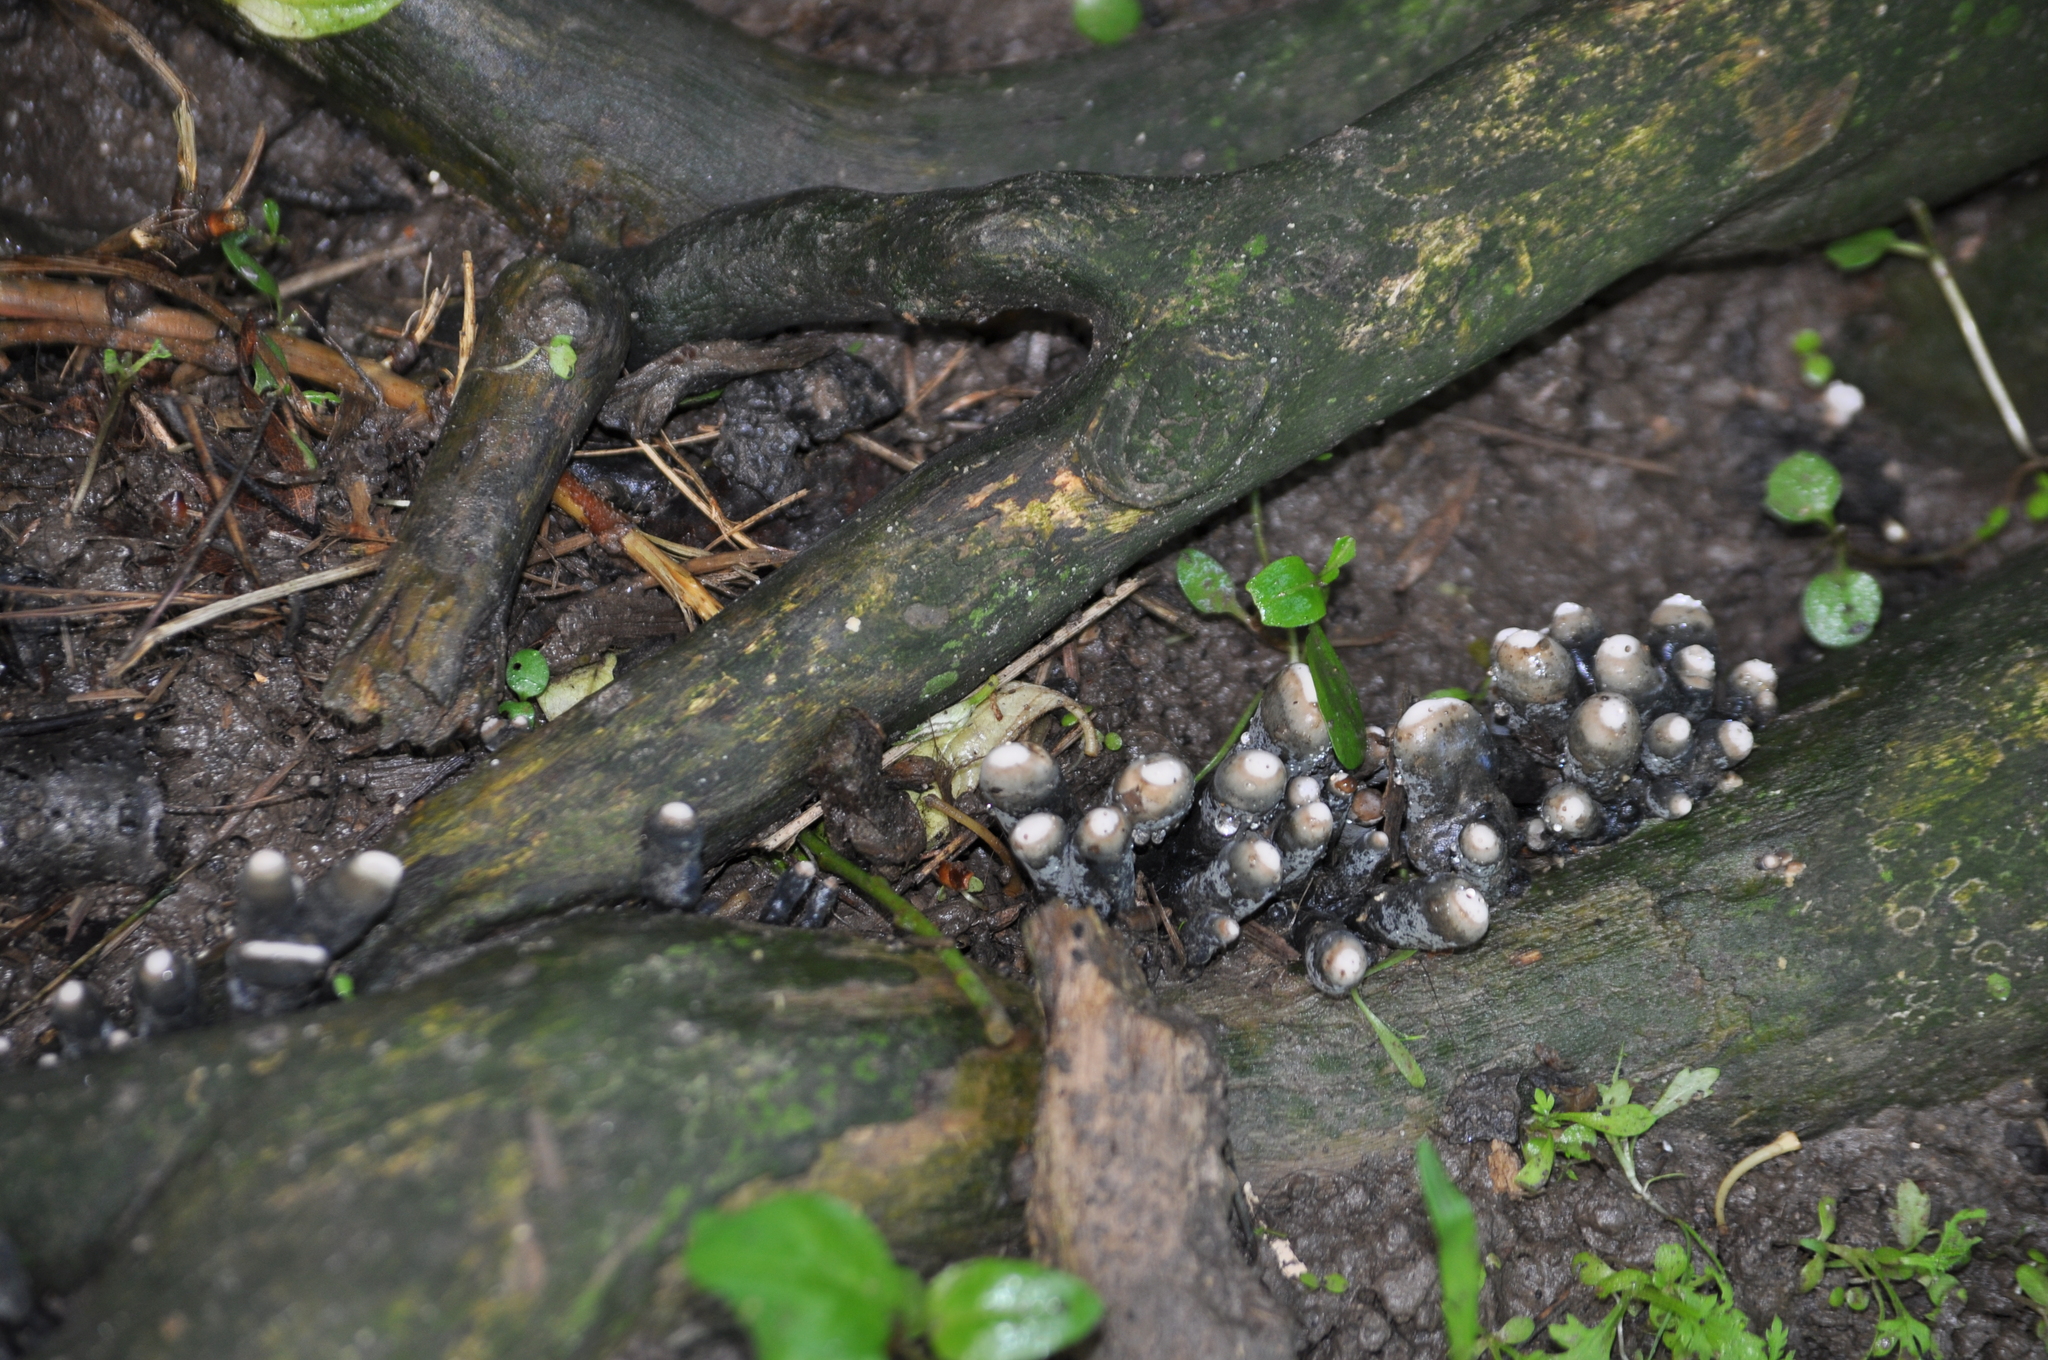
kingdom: Fungi
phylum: Ascomycota
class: Sordariomycetes
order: Xylariales
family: Xylariaceae
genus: Xylaria
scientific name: Xylaria polymorpha
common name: Dead man's fingers
